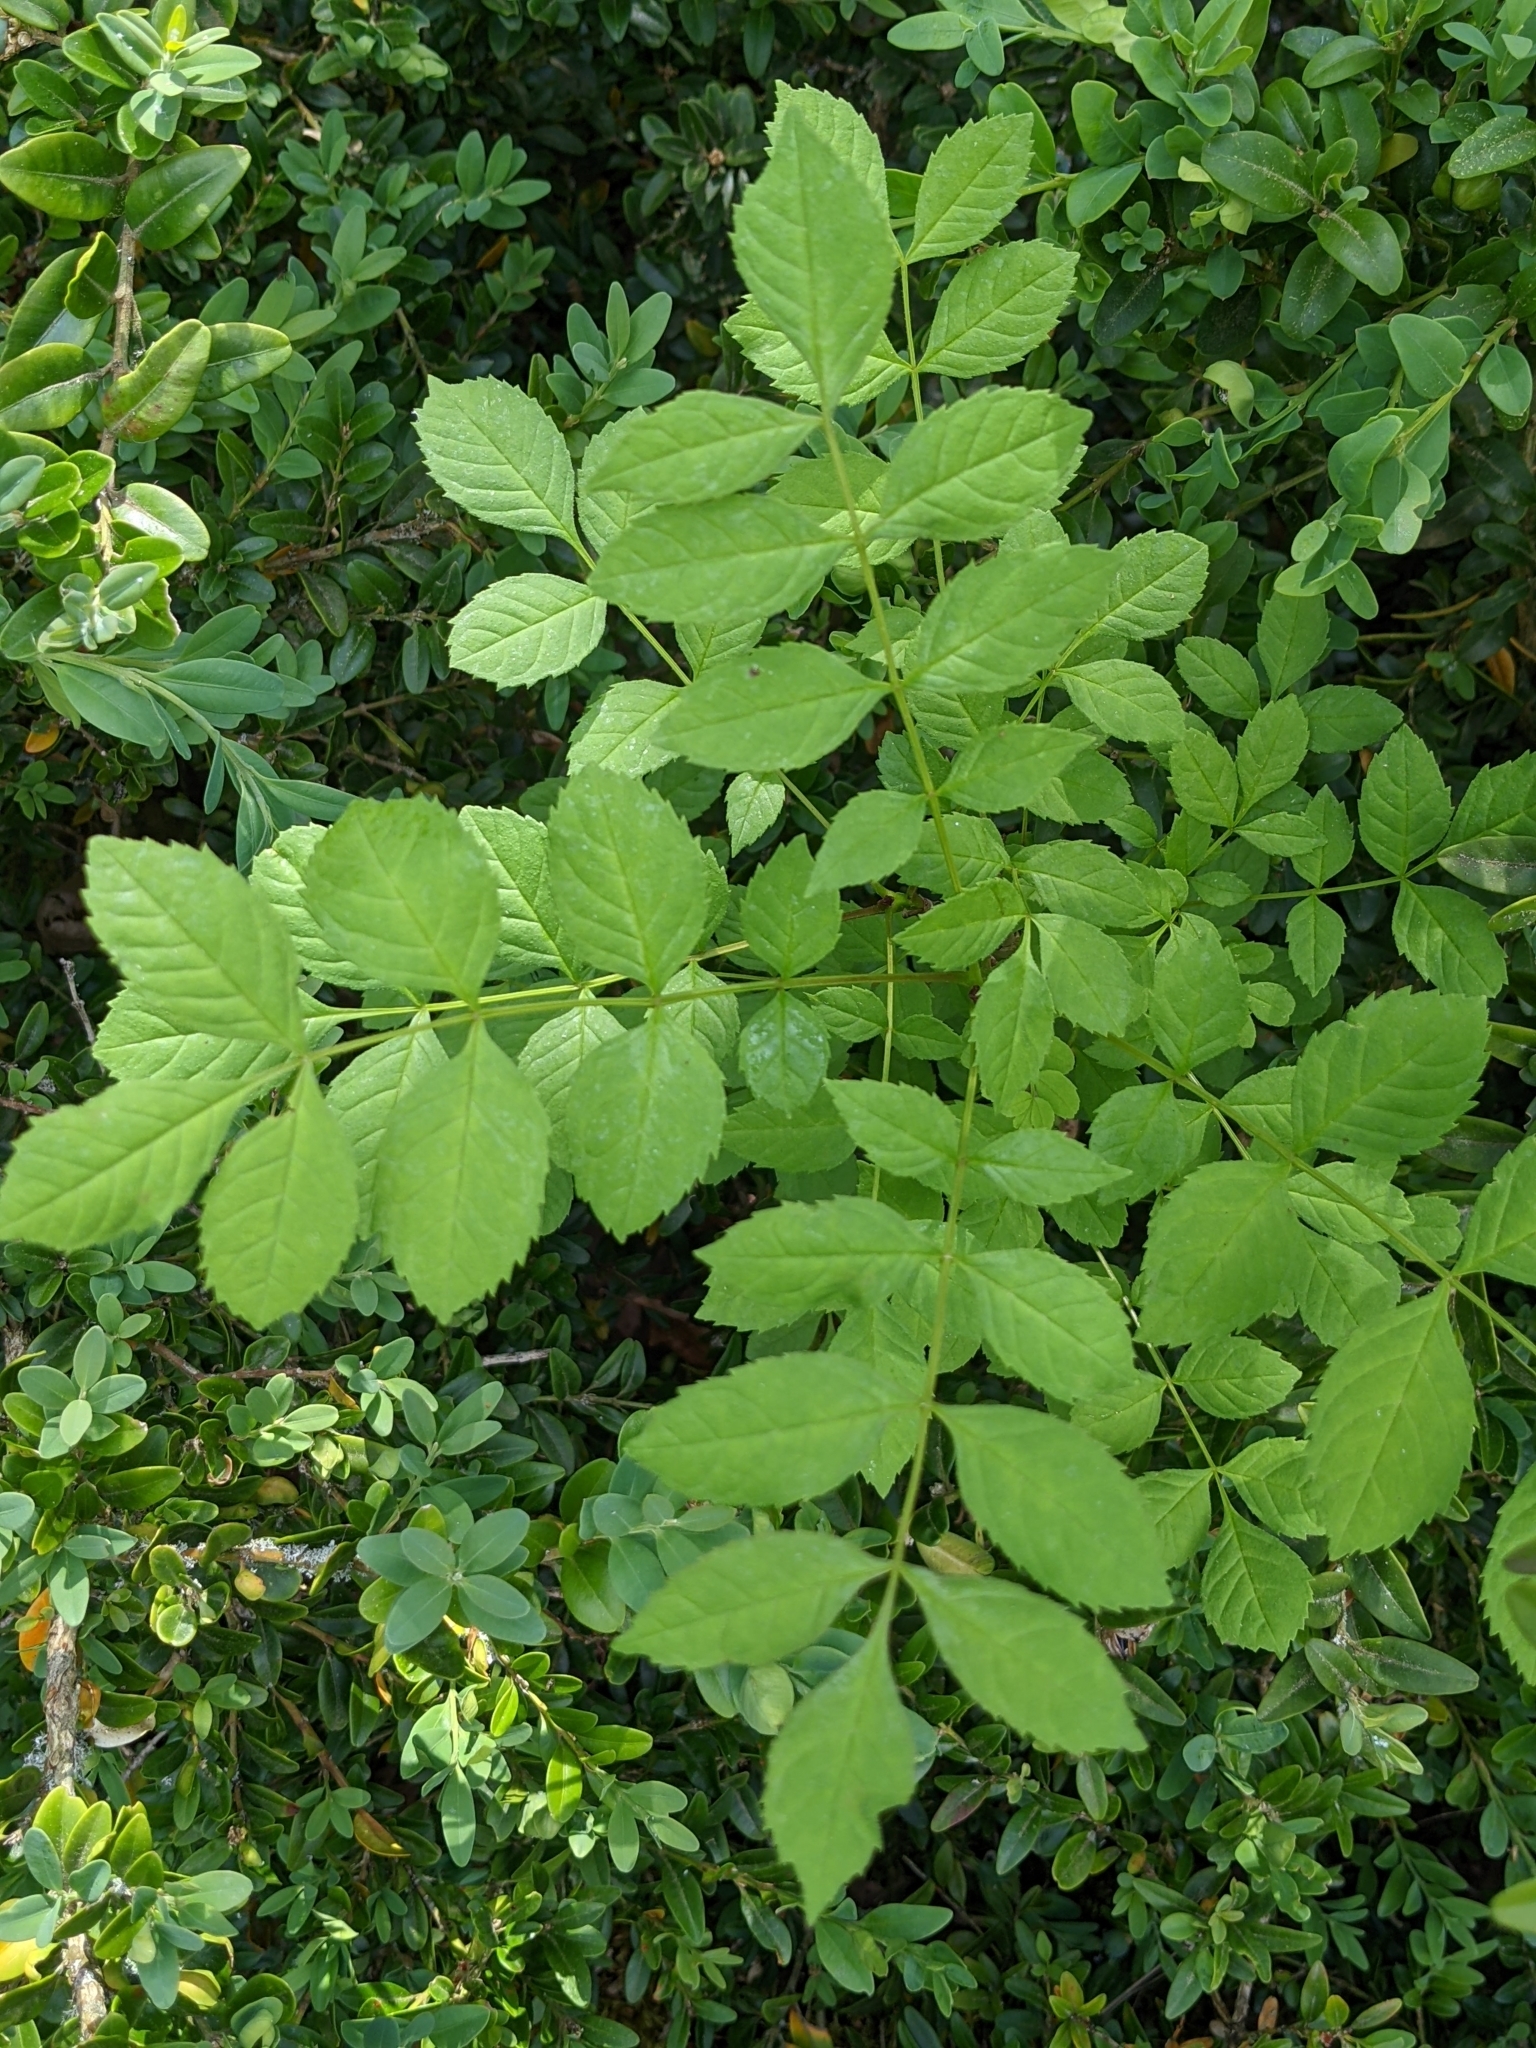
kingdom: Plantae
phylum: Tracheophyta
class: Magnoliopsida
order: Lamiales
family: Oleaceae
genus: Fraxinus
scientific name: Fraxinus excelsior
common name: European ash
